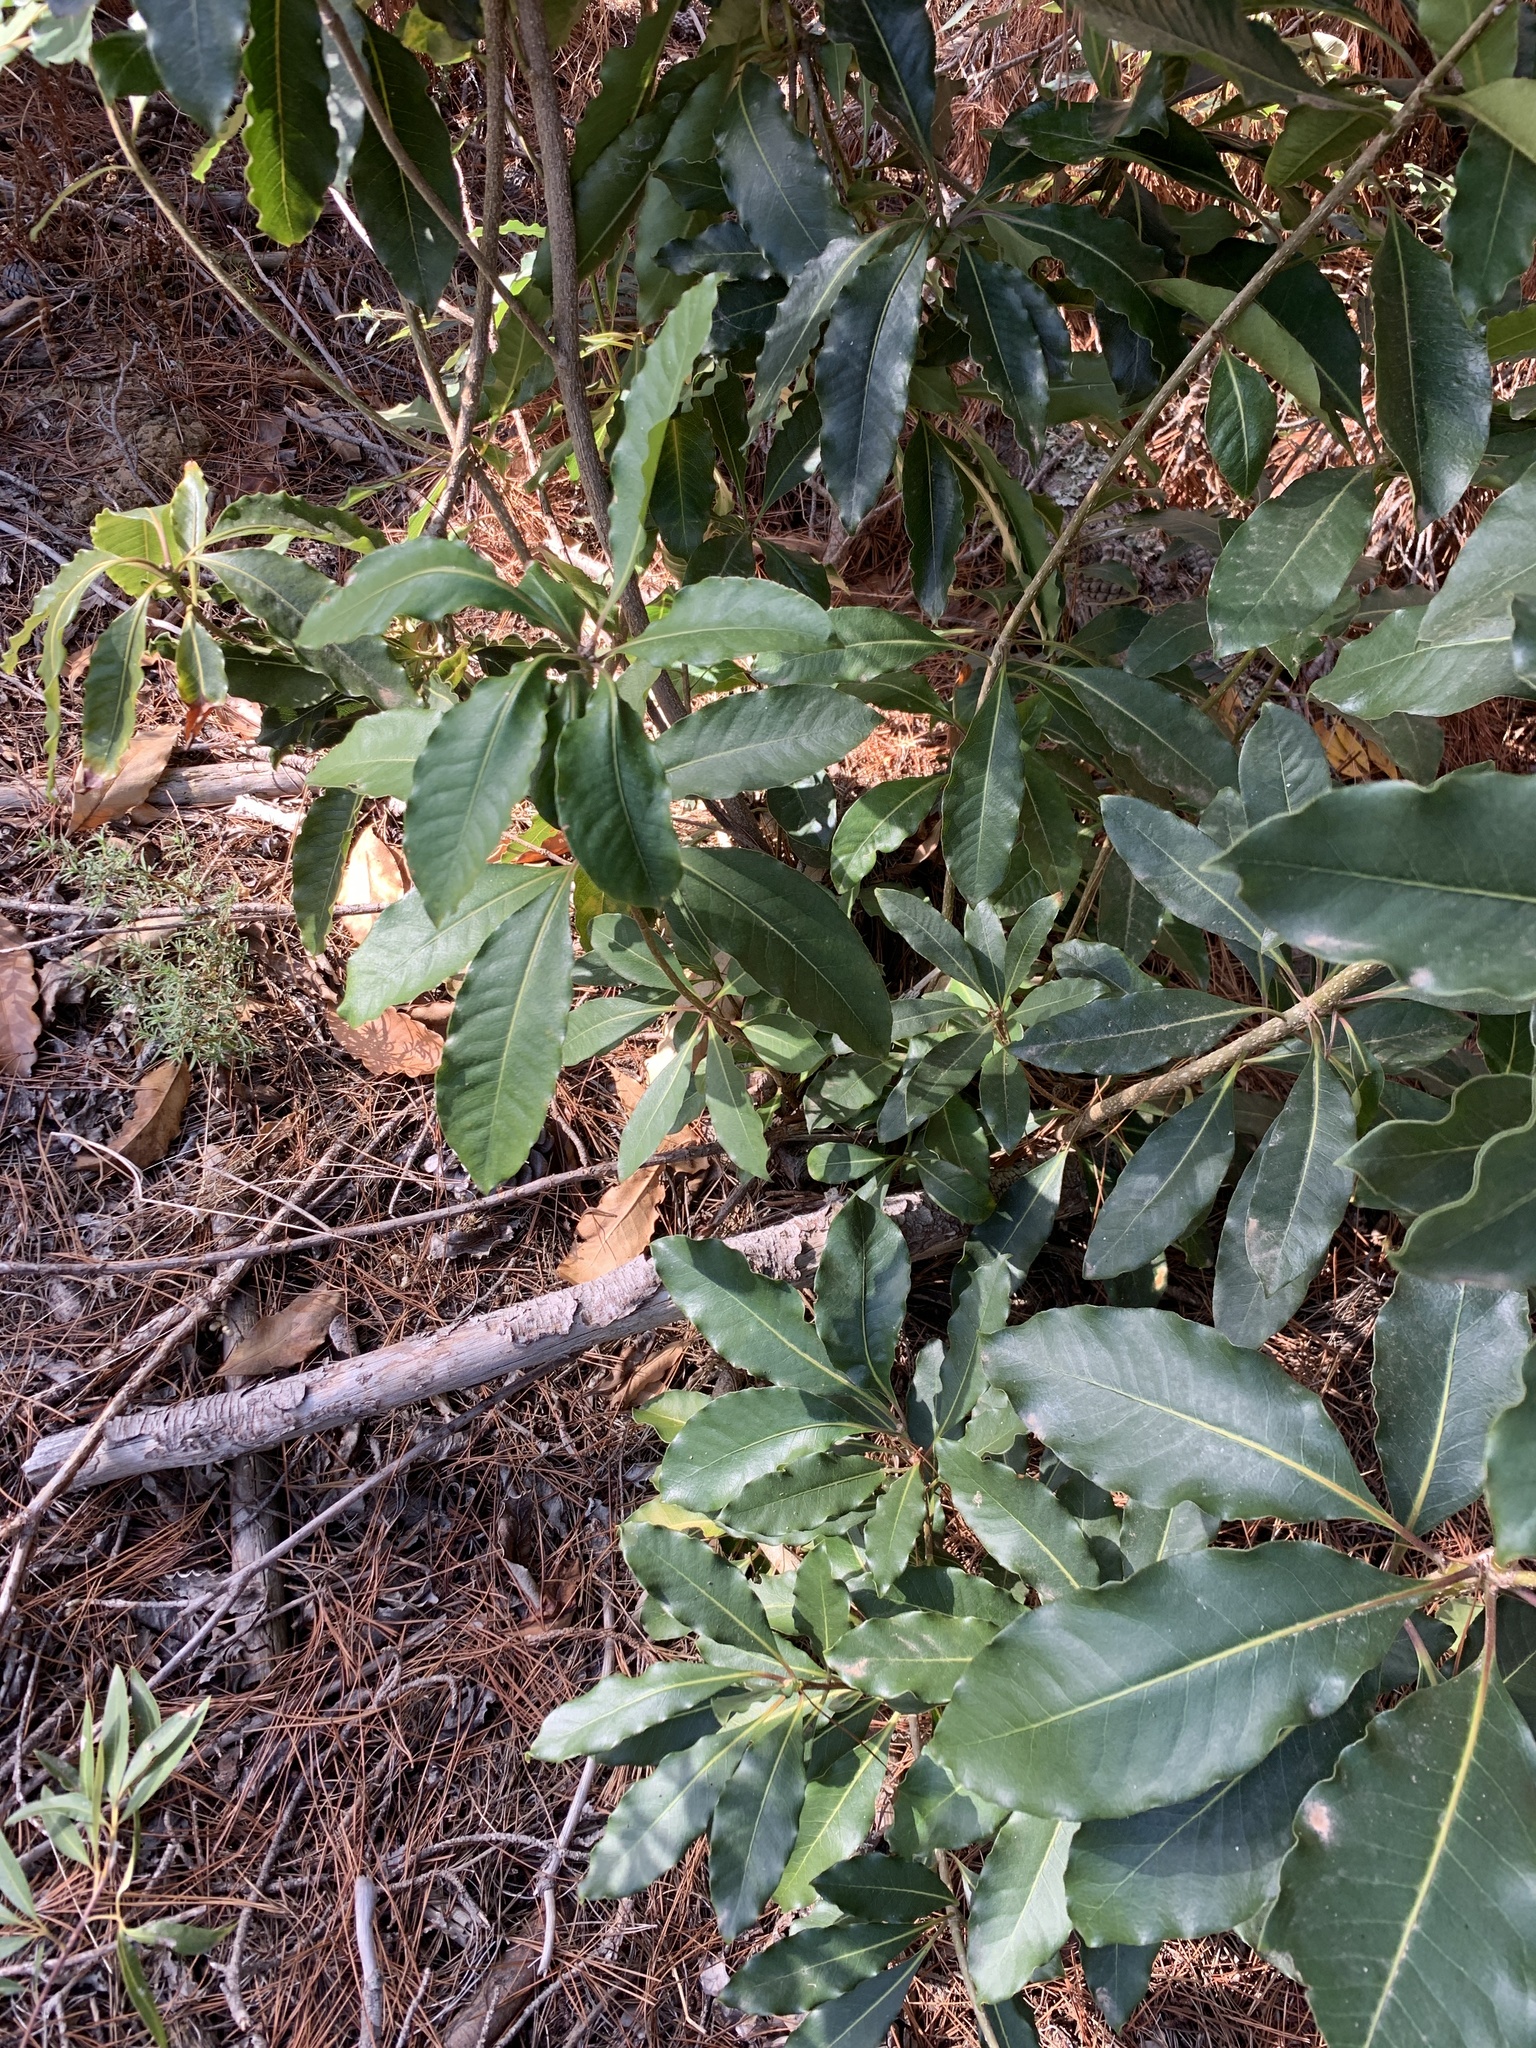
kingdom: Plantae
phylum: Tracheophyta
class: Magnoliopsida
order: Apiales
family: Pittosporaceae
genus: Pittosporum
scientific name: Pittosporum undulatum
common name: Australian cheesewood
